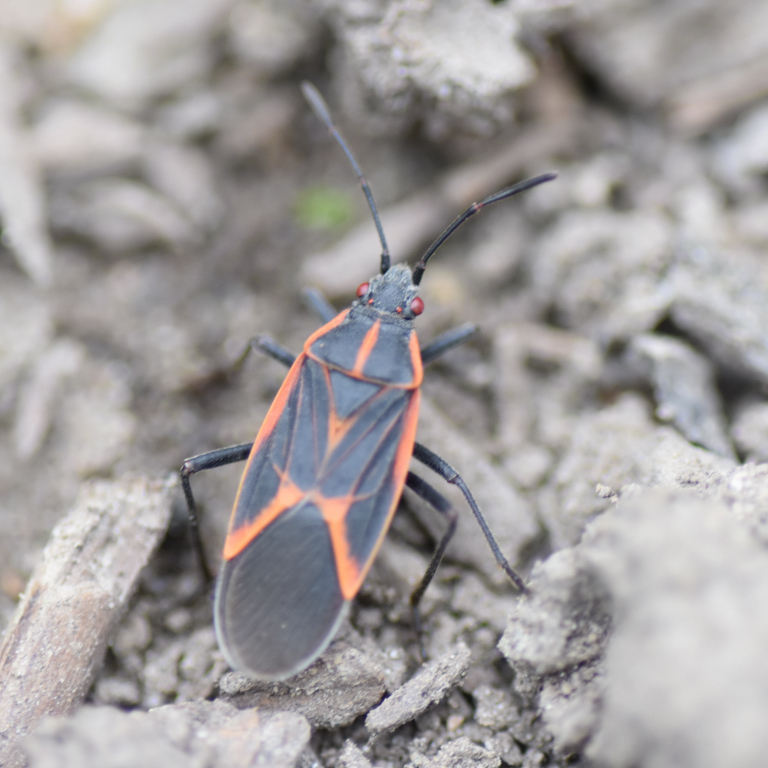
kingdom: Animalia
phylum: Arthropoda
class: Insecta
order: Hemiptera
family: Rhopalidae
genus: Boisea
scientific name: Boisea trivittata
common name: Boxelder bug
